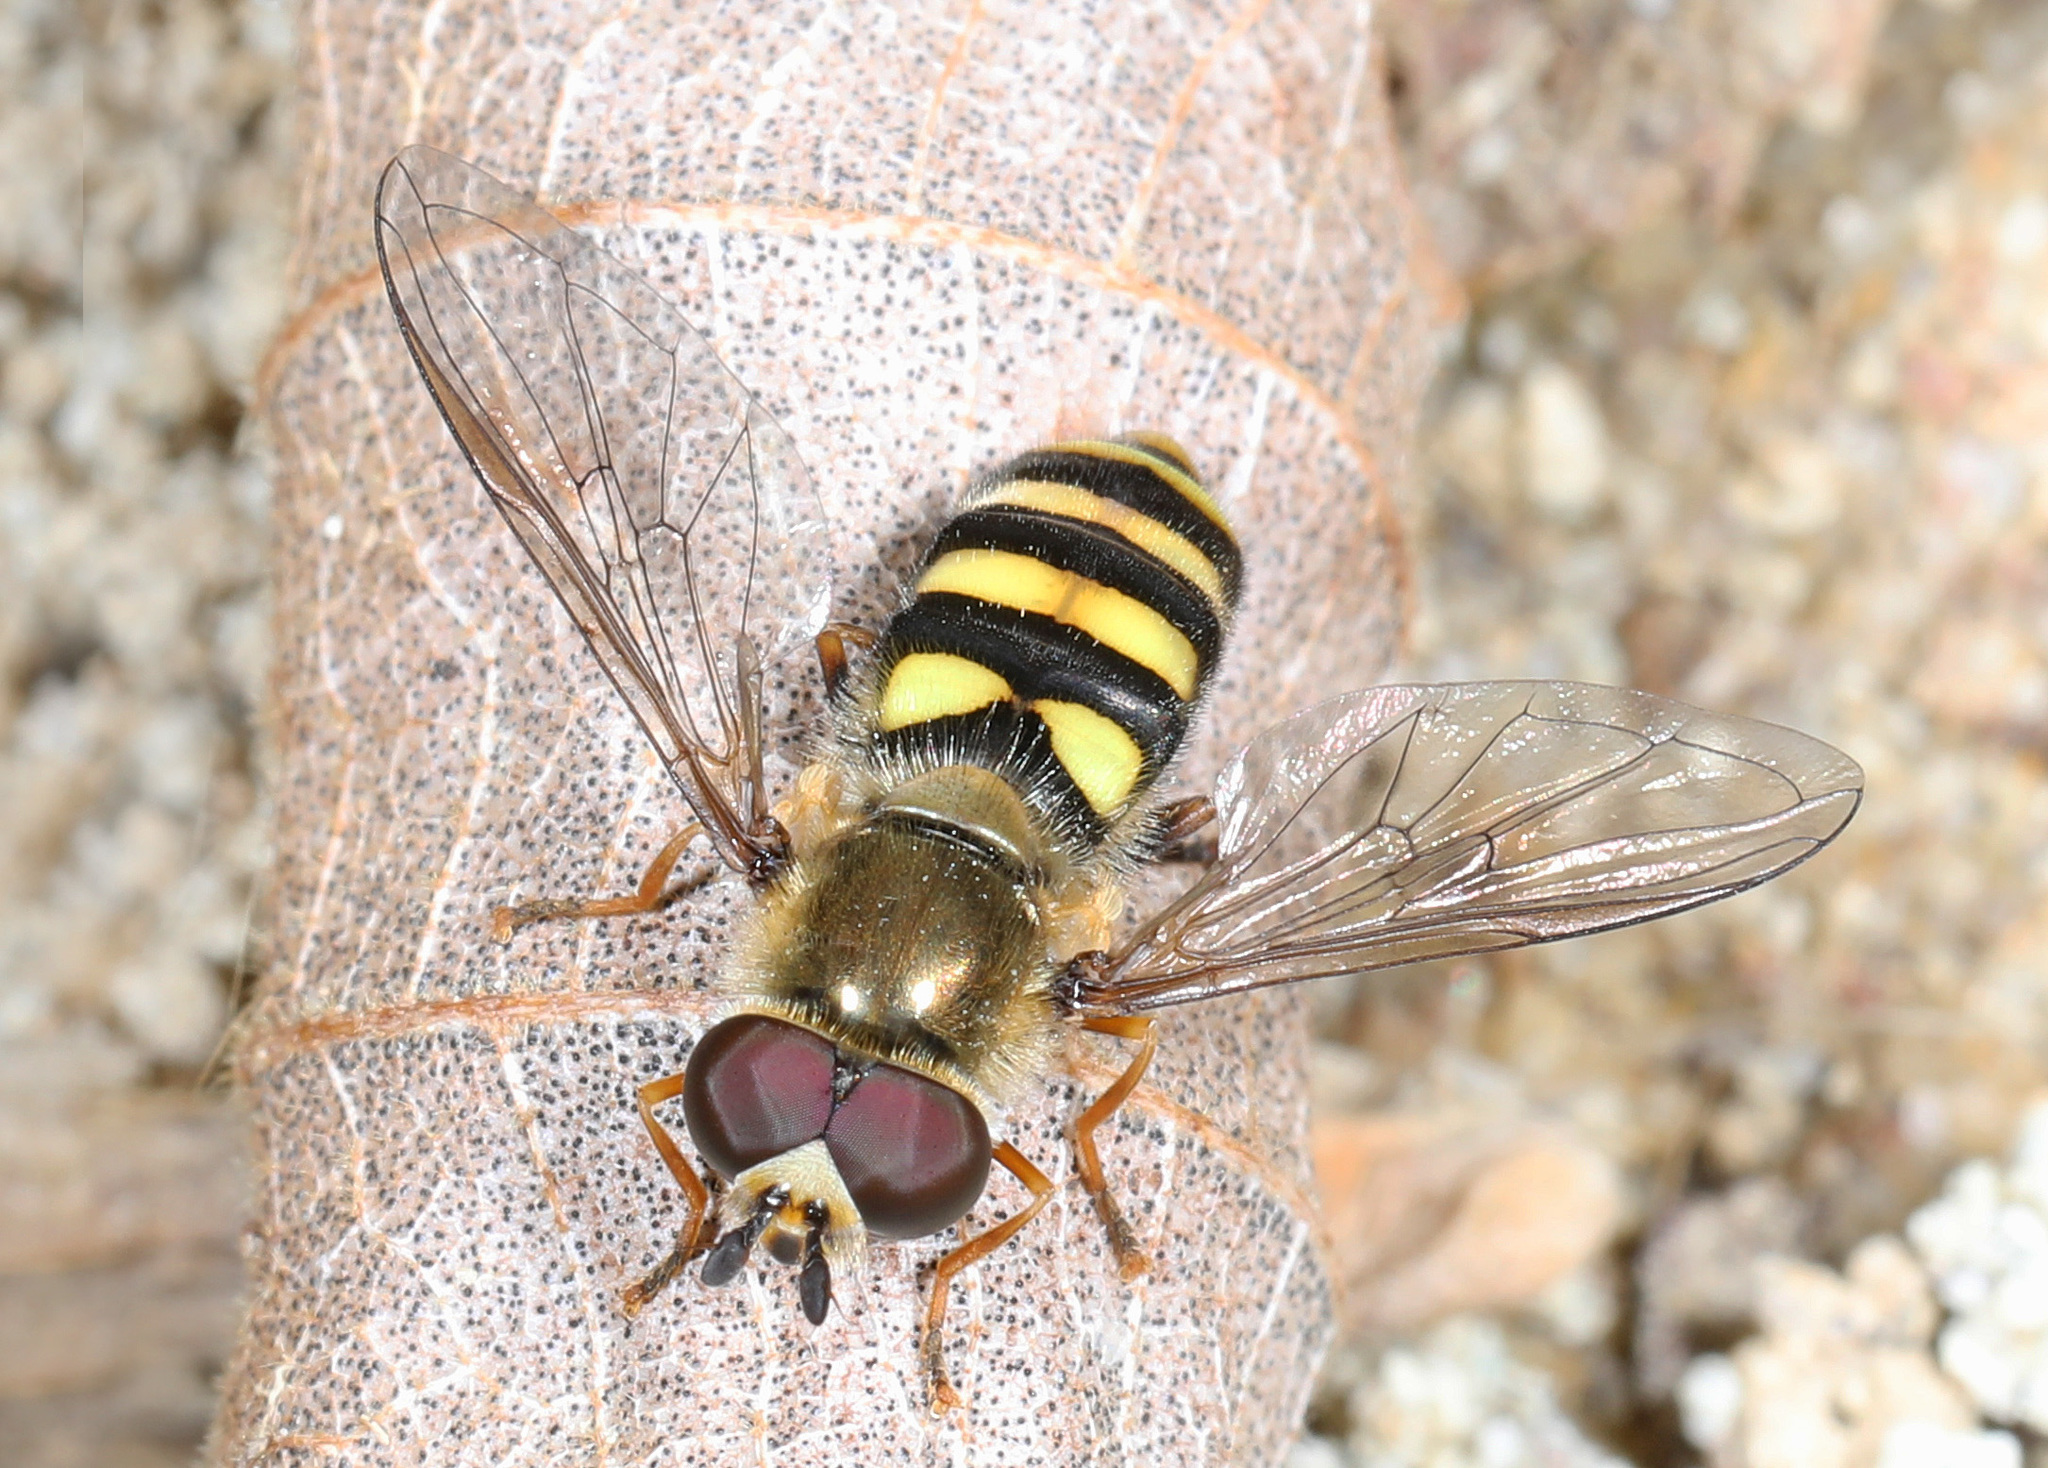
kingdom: Animalia
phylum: Arthropoda
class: Insecta
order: Diptera
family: Syrphidae
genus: Eupeodes
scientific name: Eupeodes
